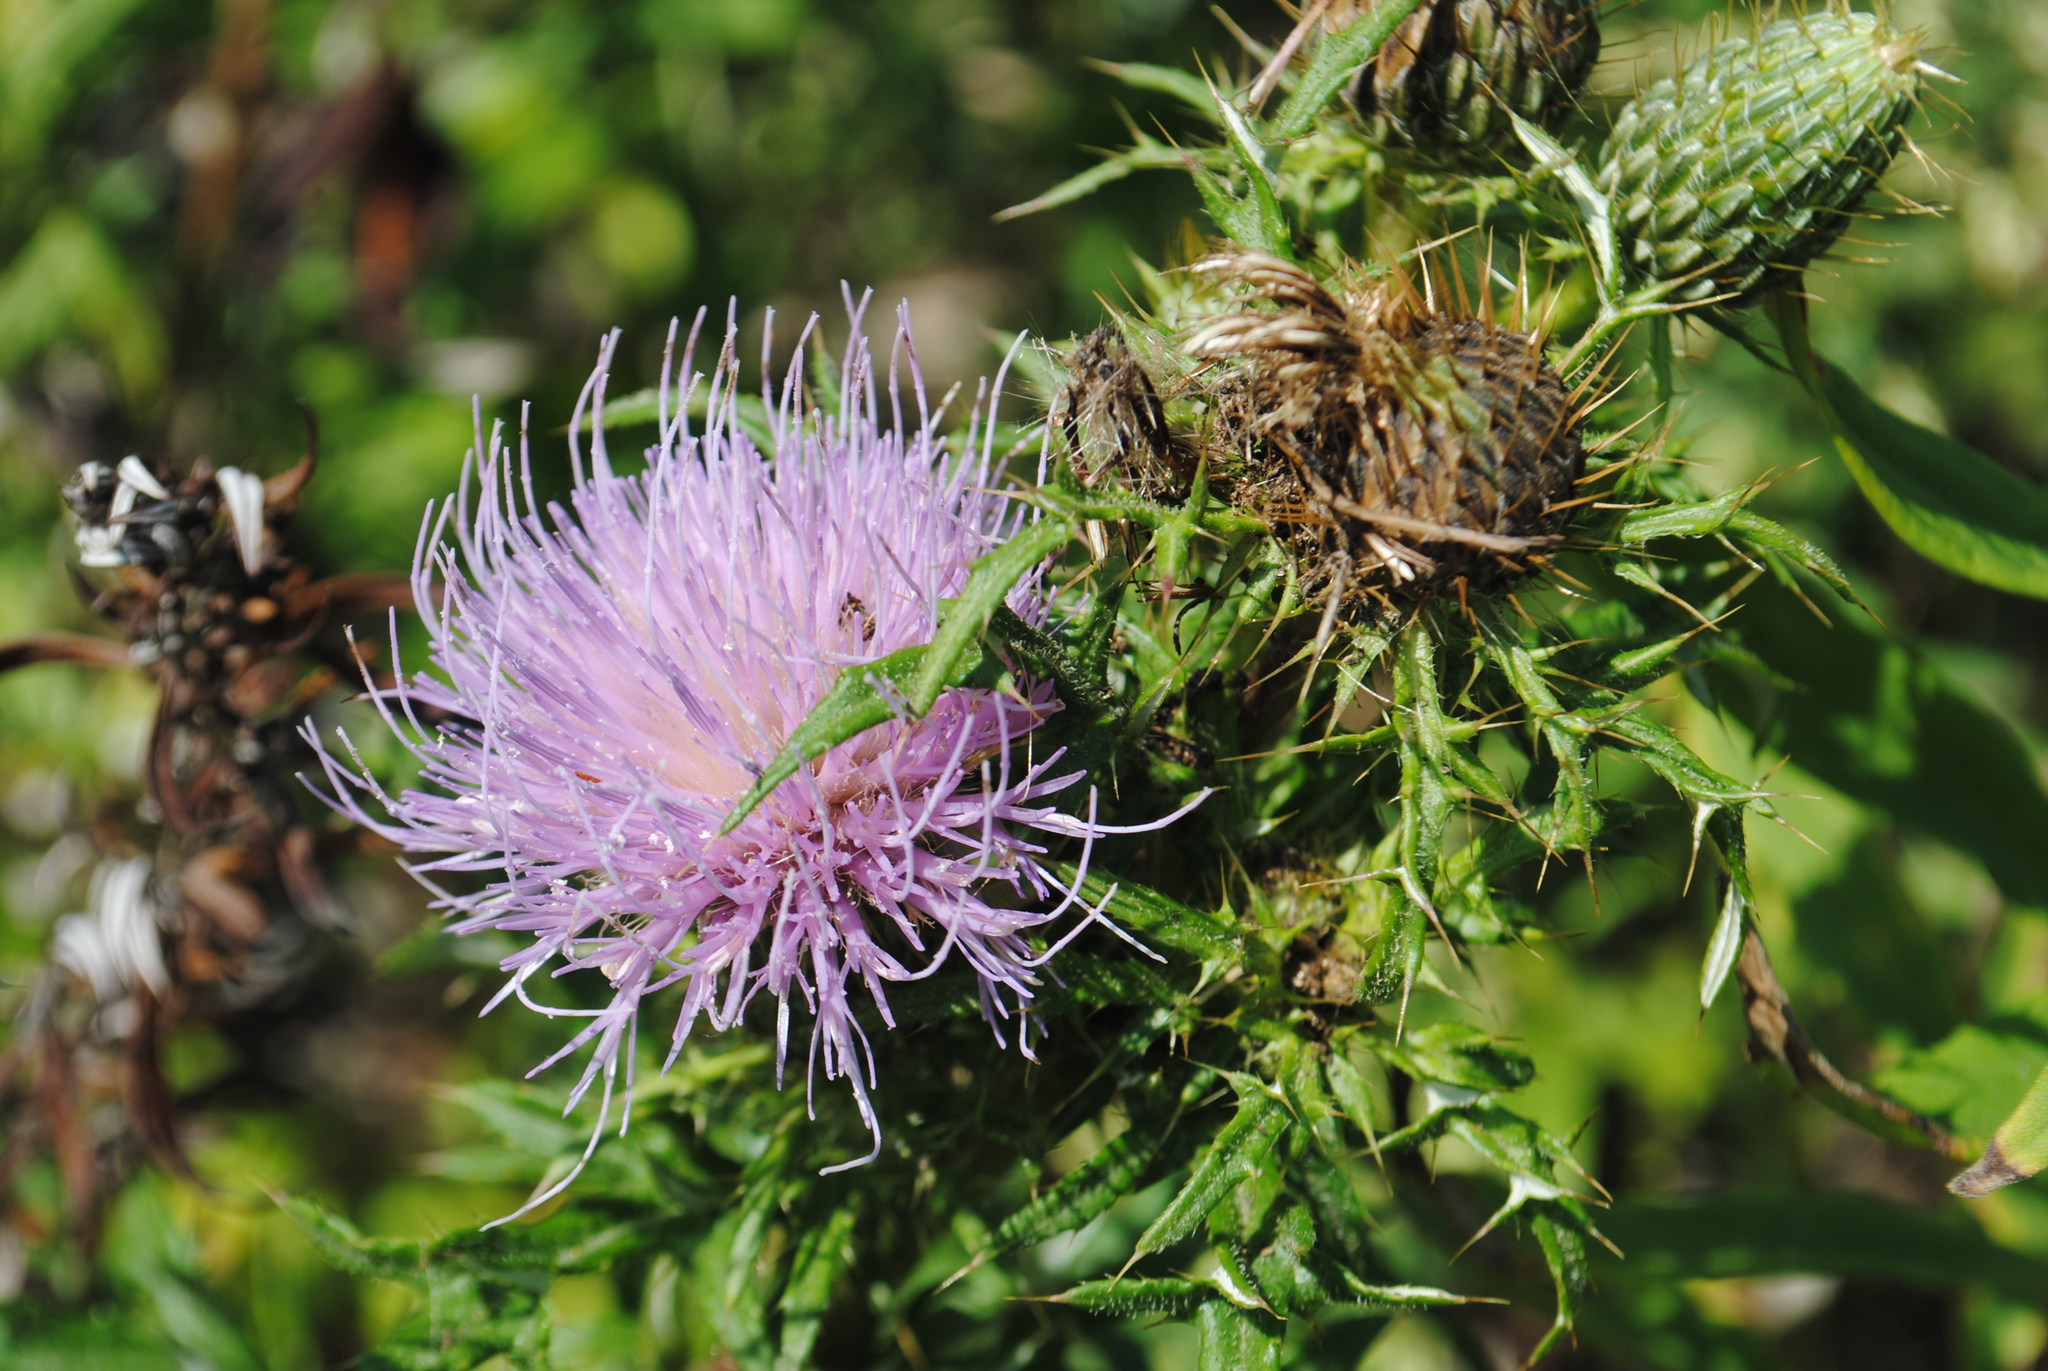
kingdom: Plantae
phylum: Tracheophyta
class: Magnoliopsida
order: Asterales
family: Asteraceae
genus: Cirsium
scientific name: Cirsium discolor
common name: Field thistle
